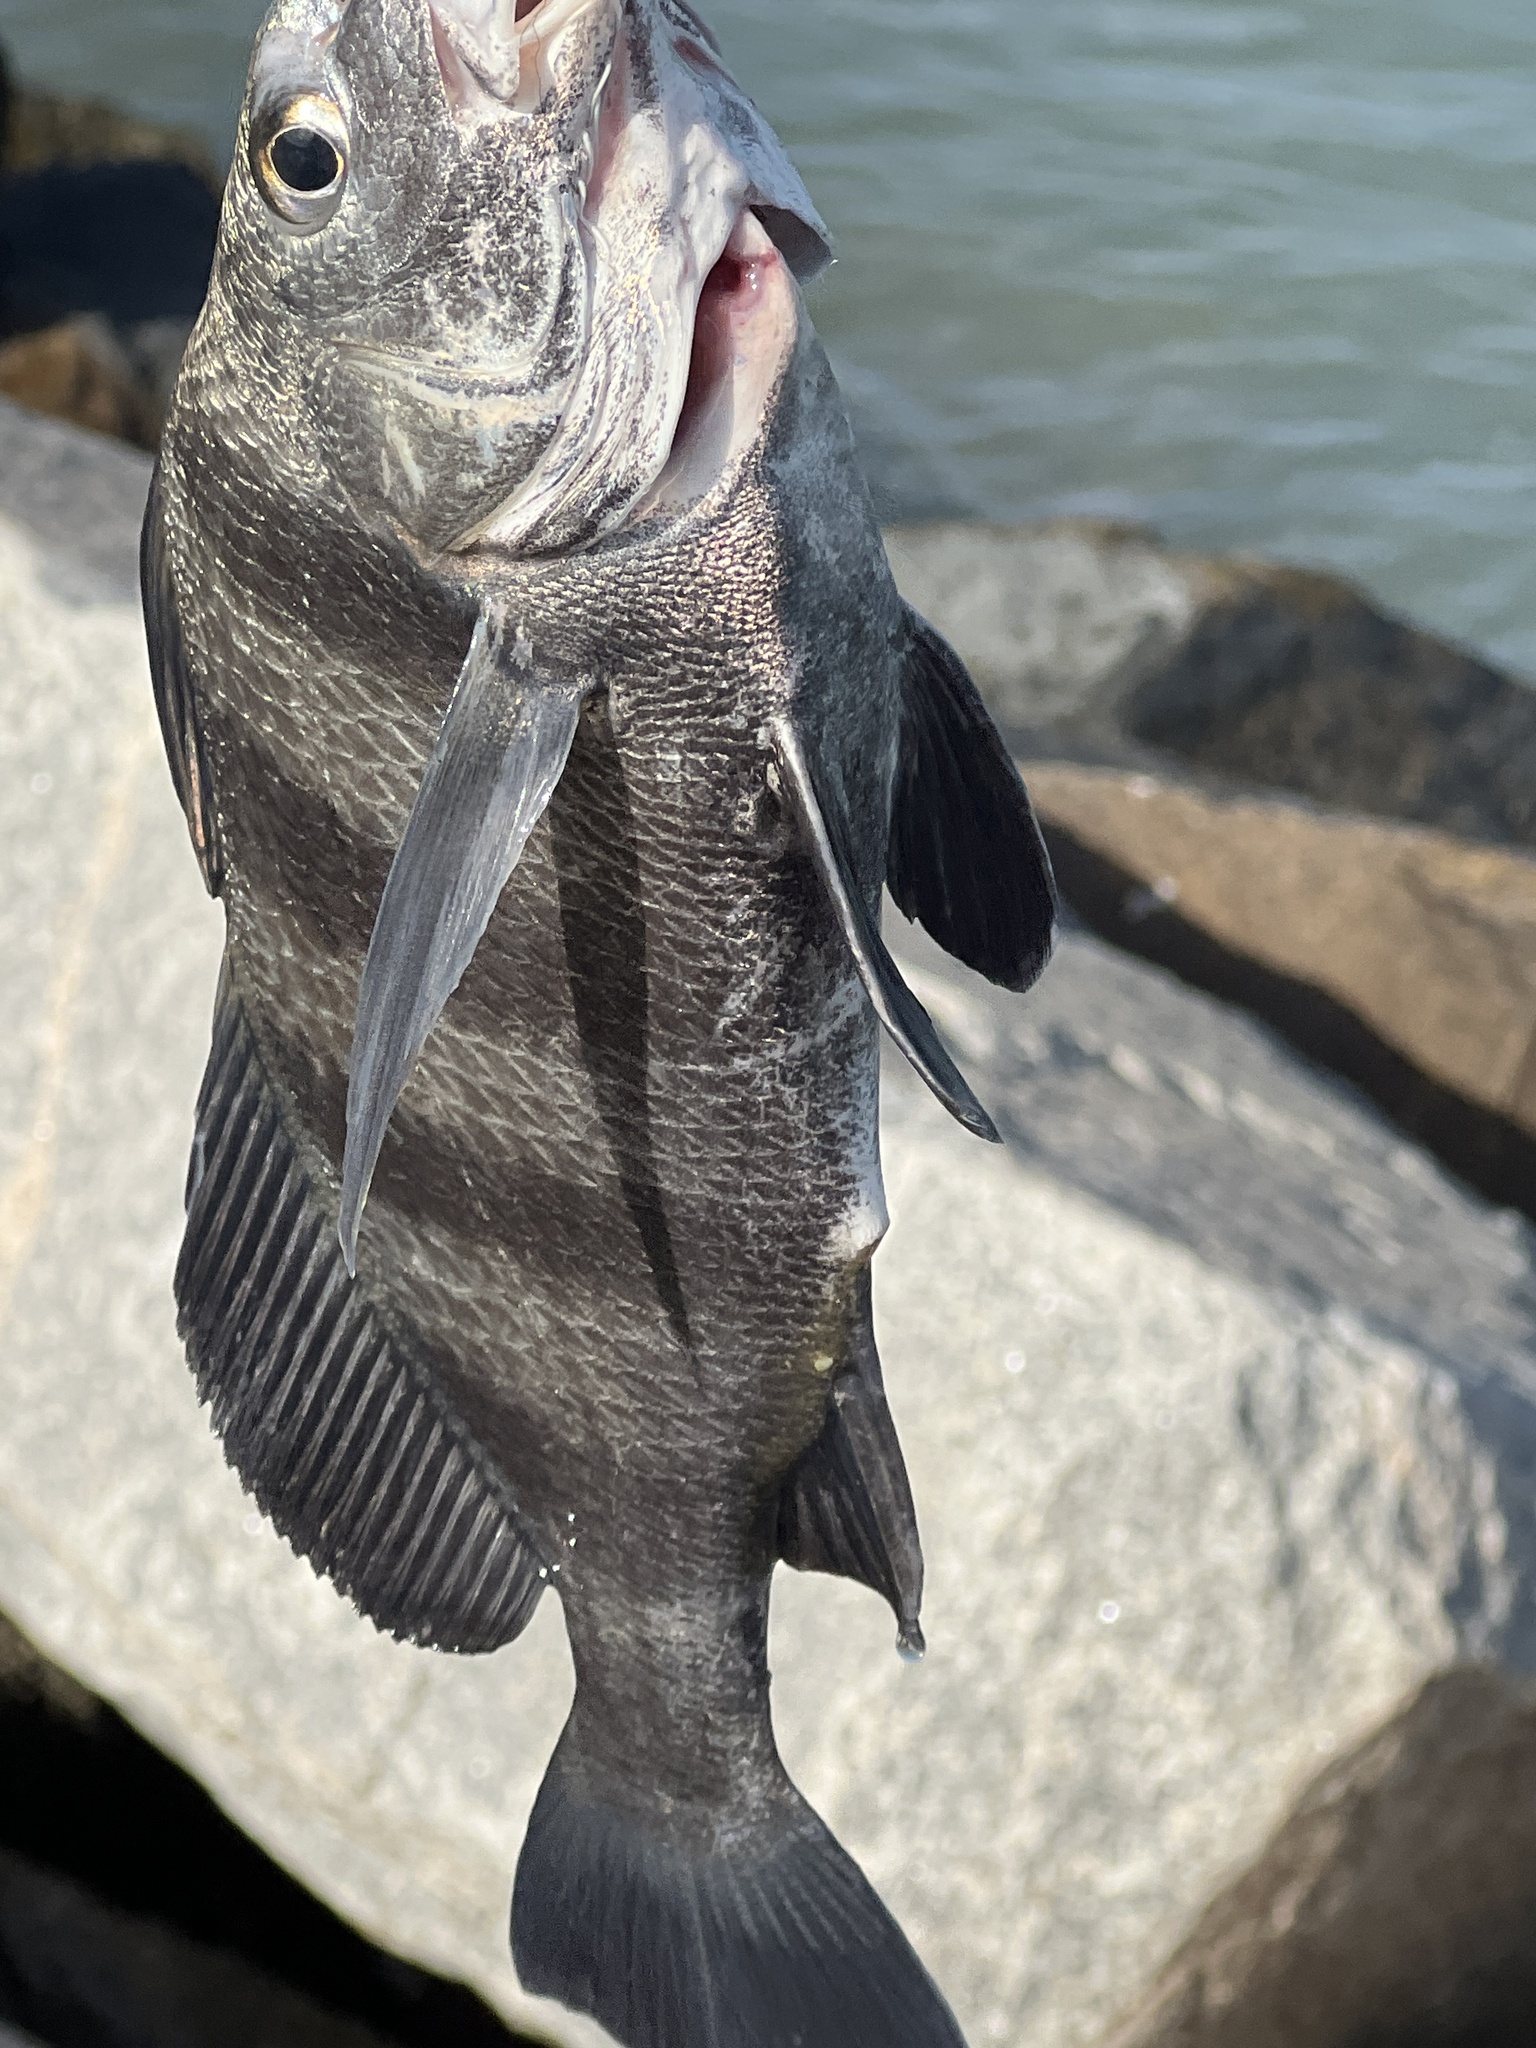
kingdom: Animalia
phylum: Chordata
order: Perciformes
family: Sciaenidae
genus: Pogonias
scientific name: Pogonias cromis
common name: Black drum
